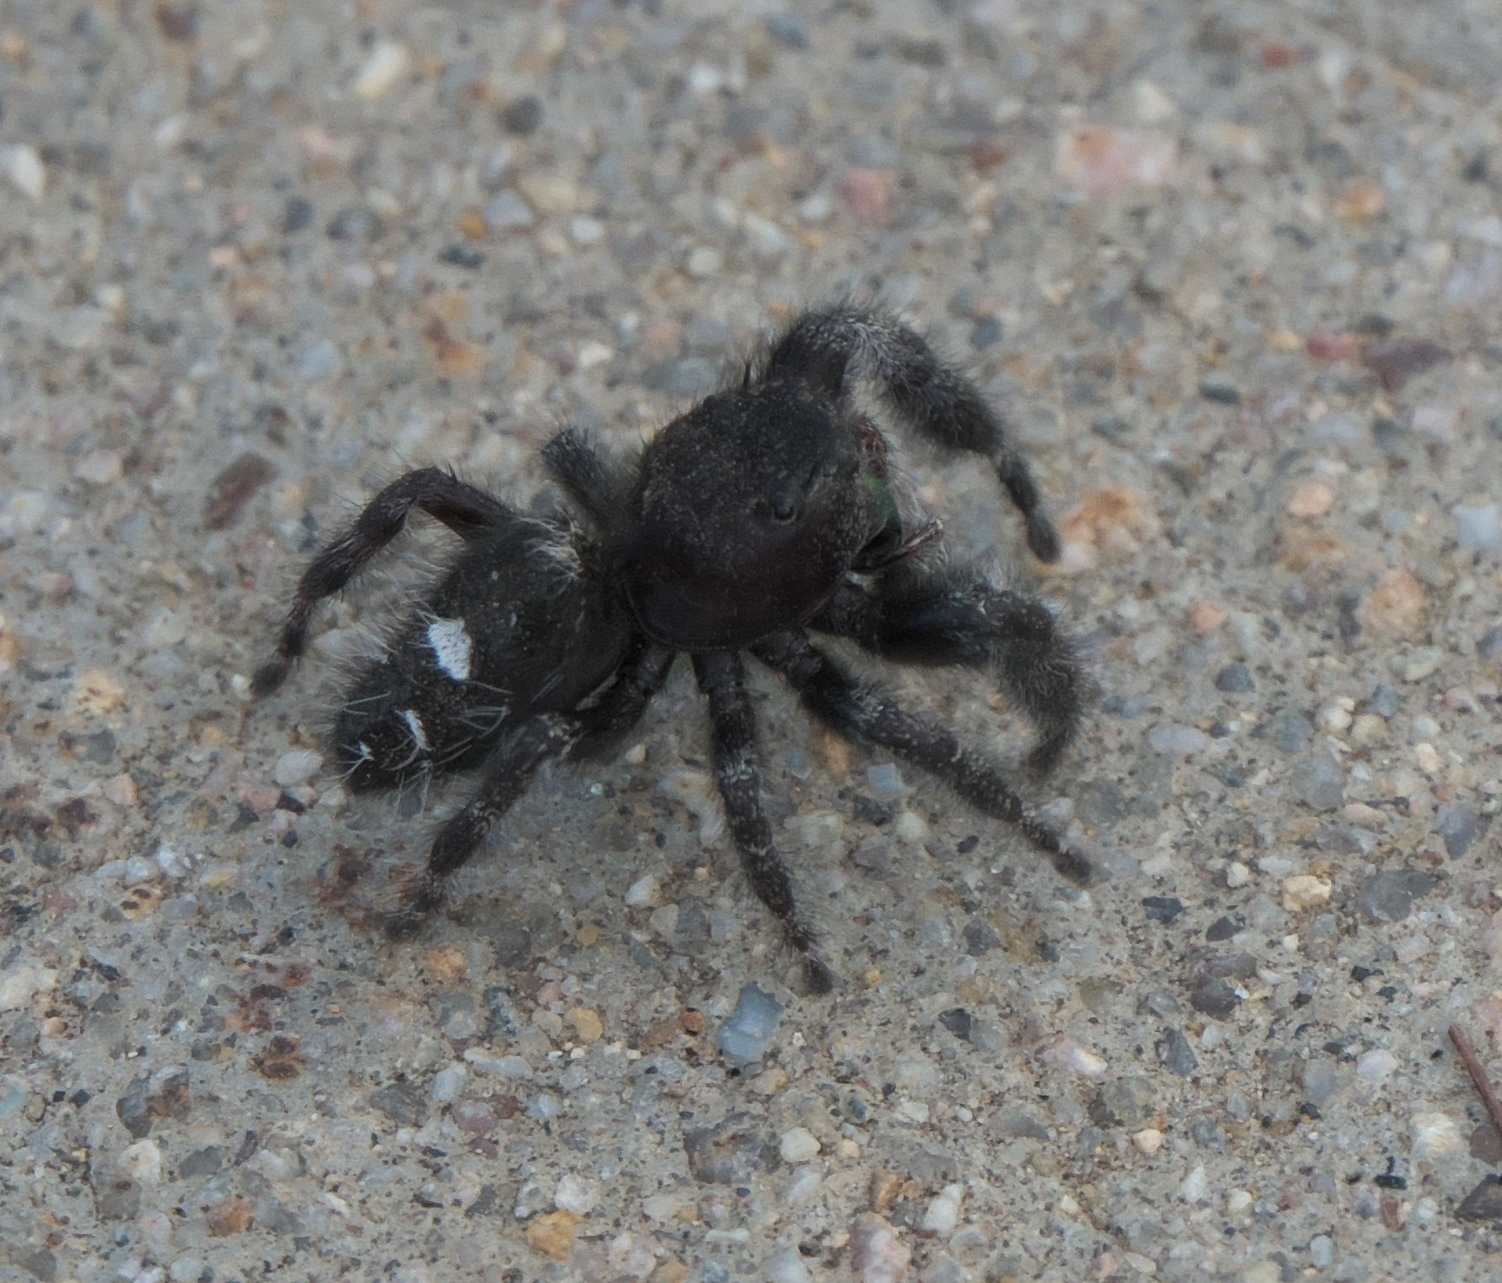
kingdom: Animalia
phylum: Arthropoda
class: Arachnida
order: Araneae
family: Salticidae
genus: Phidippus
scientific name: Phidippus audax
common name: Bold jumper
